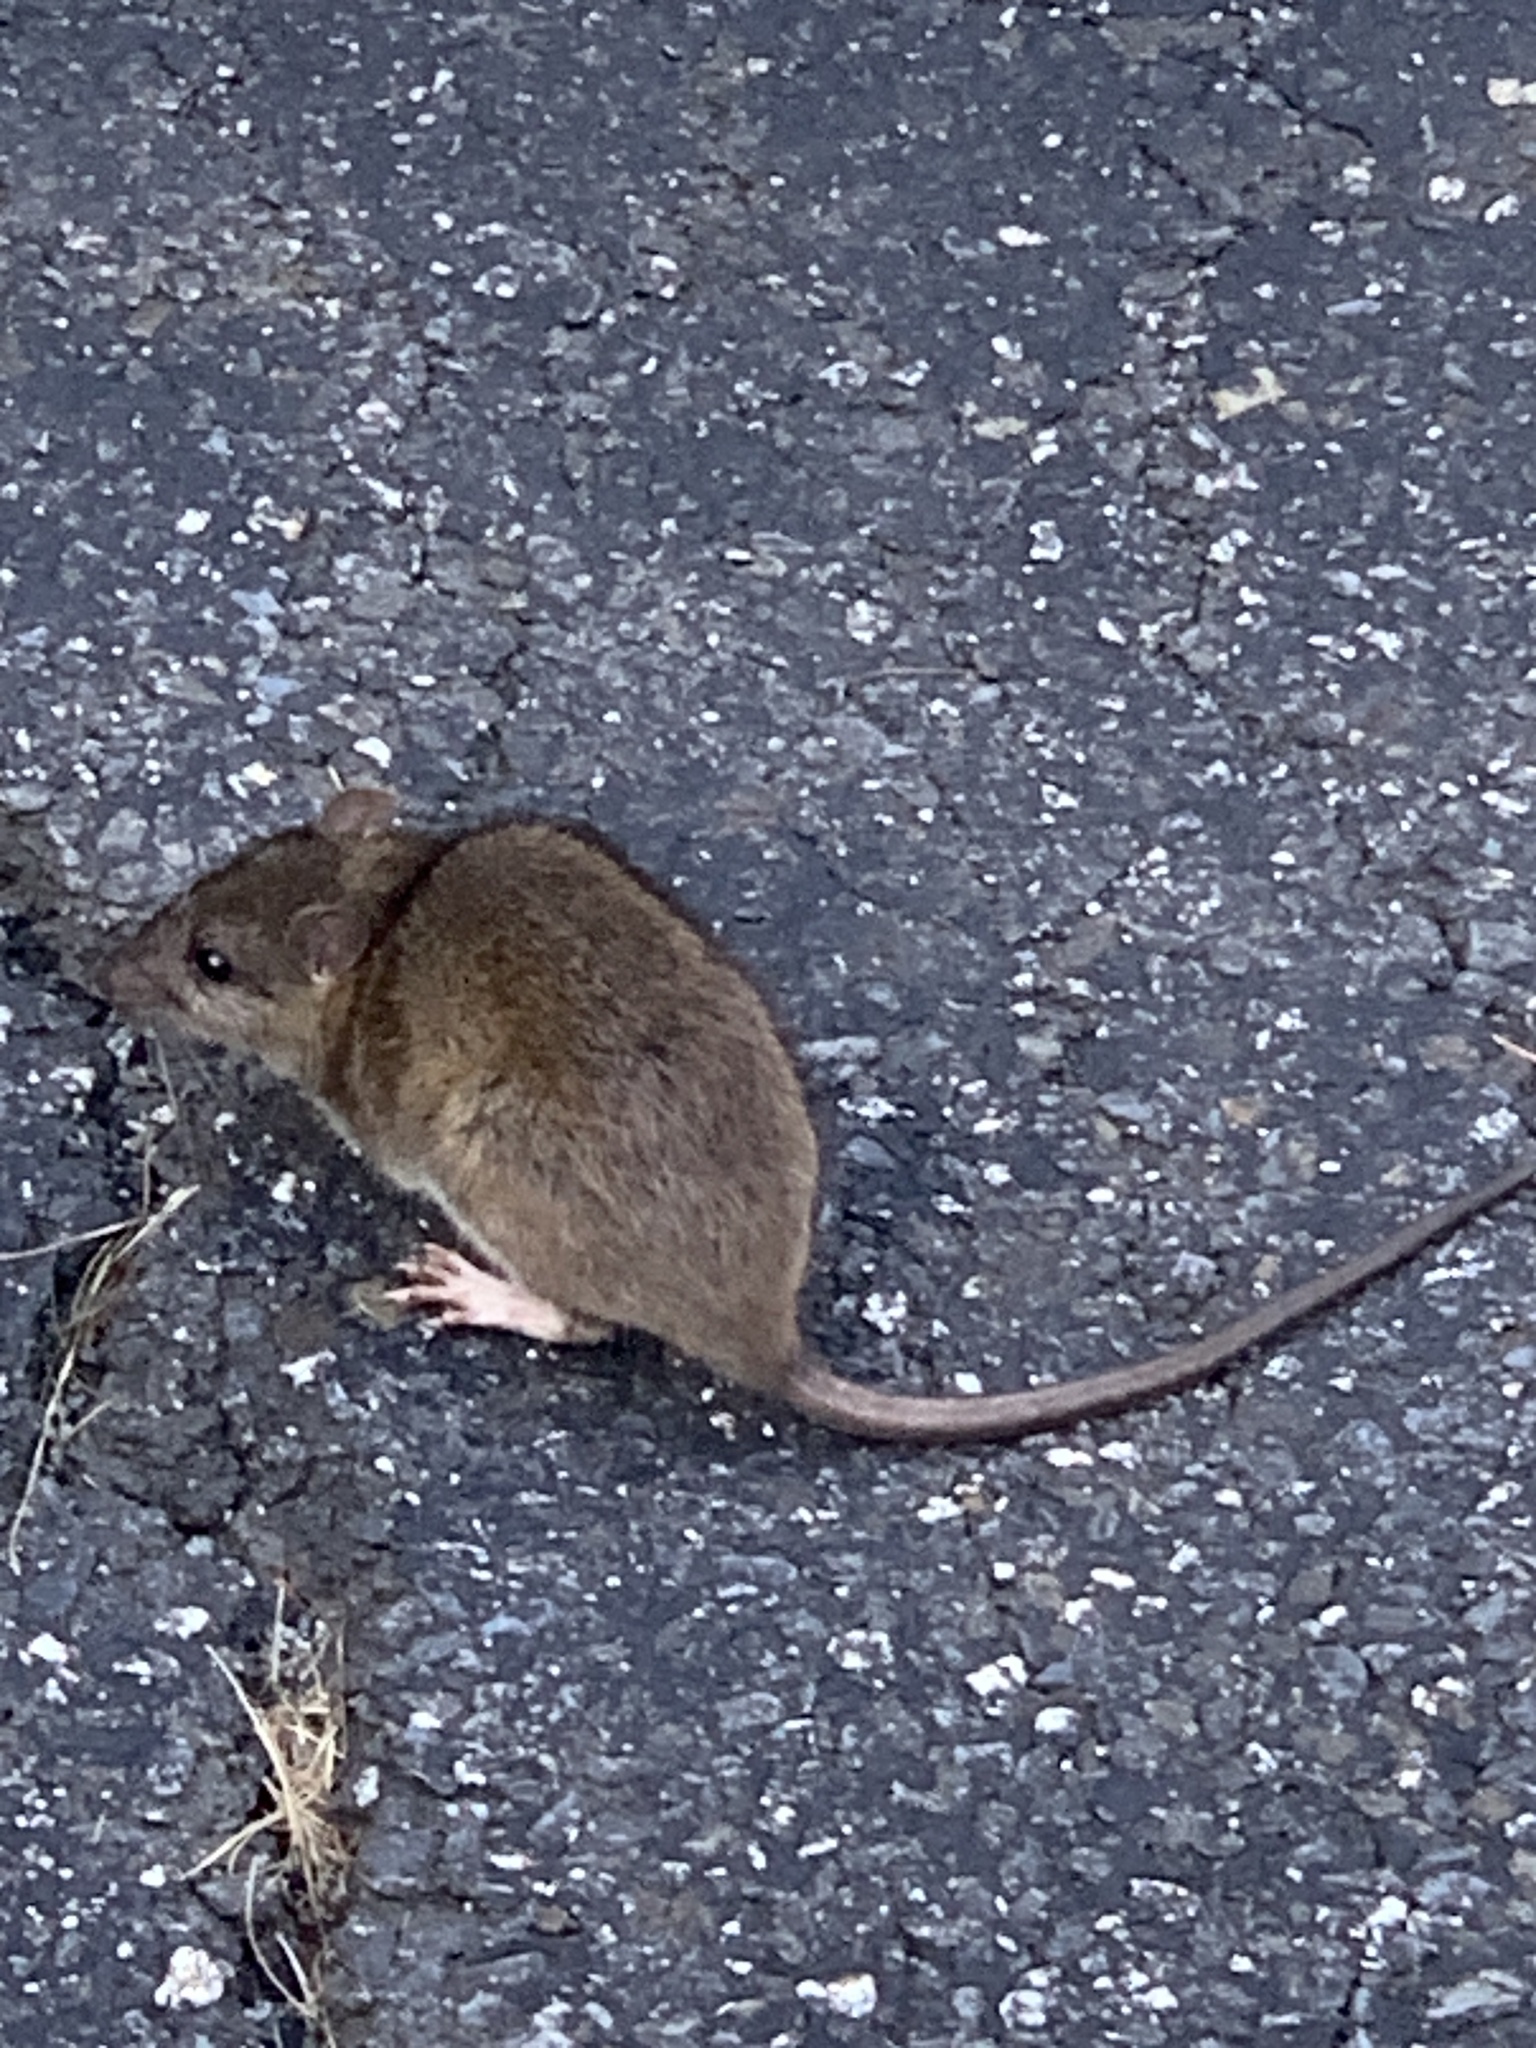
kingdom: Animalia
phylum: Chordata
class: Mammalia
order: Rodentia
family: Muridae
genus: Rattus
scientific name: Rattus norvegicus
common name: Brown rat
